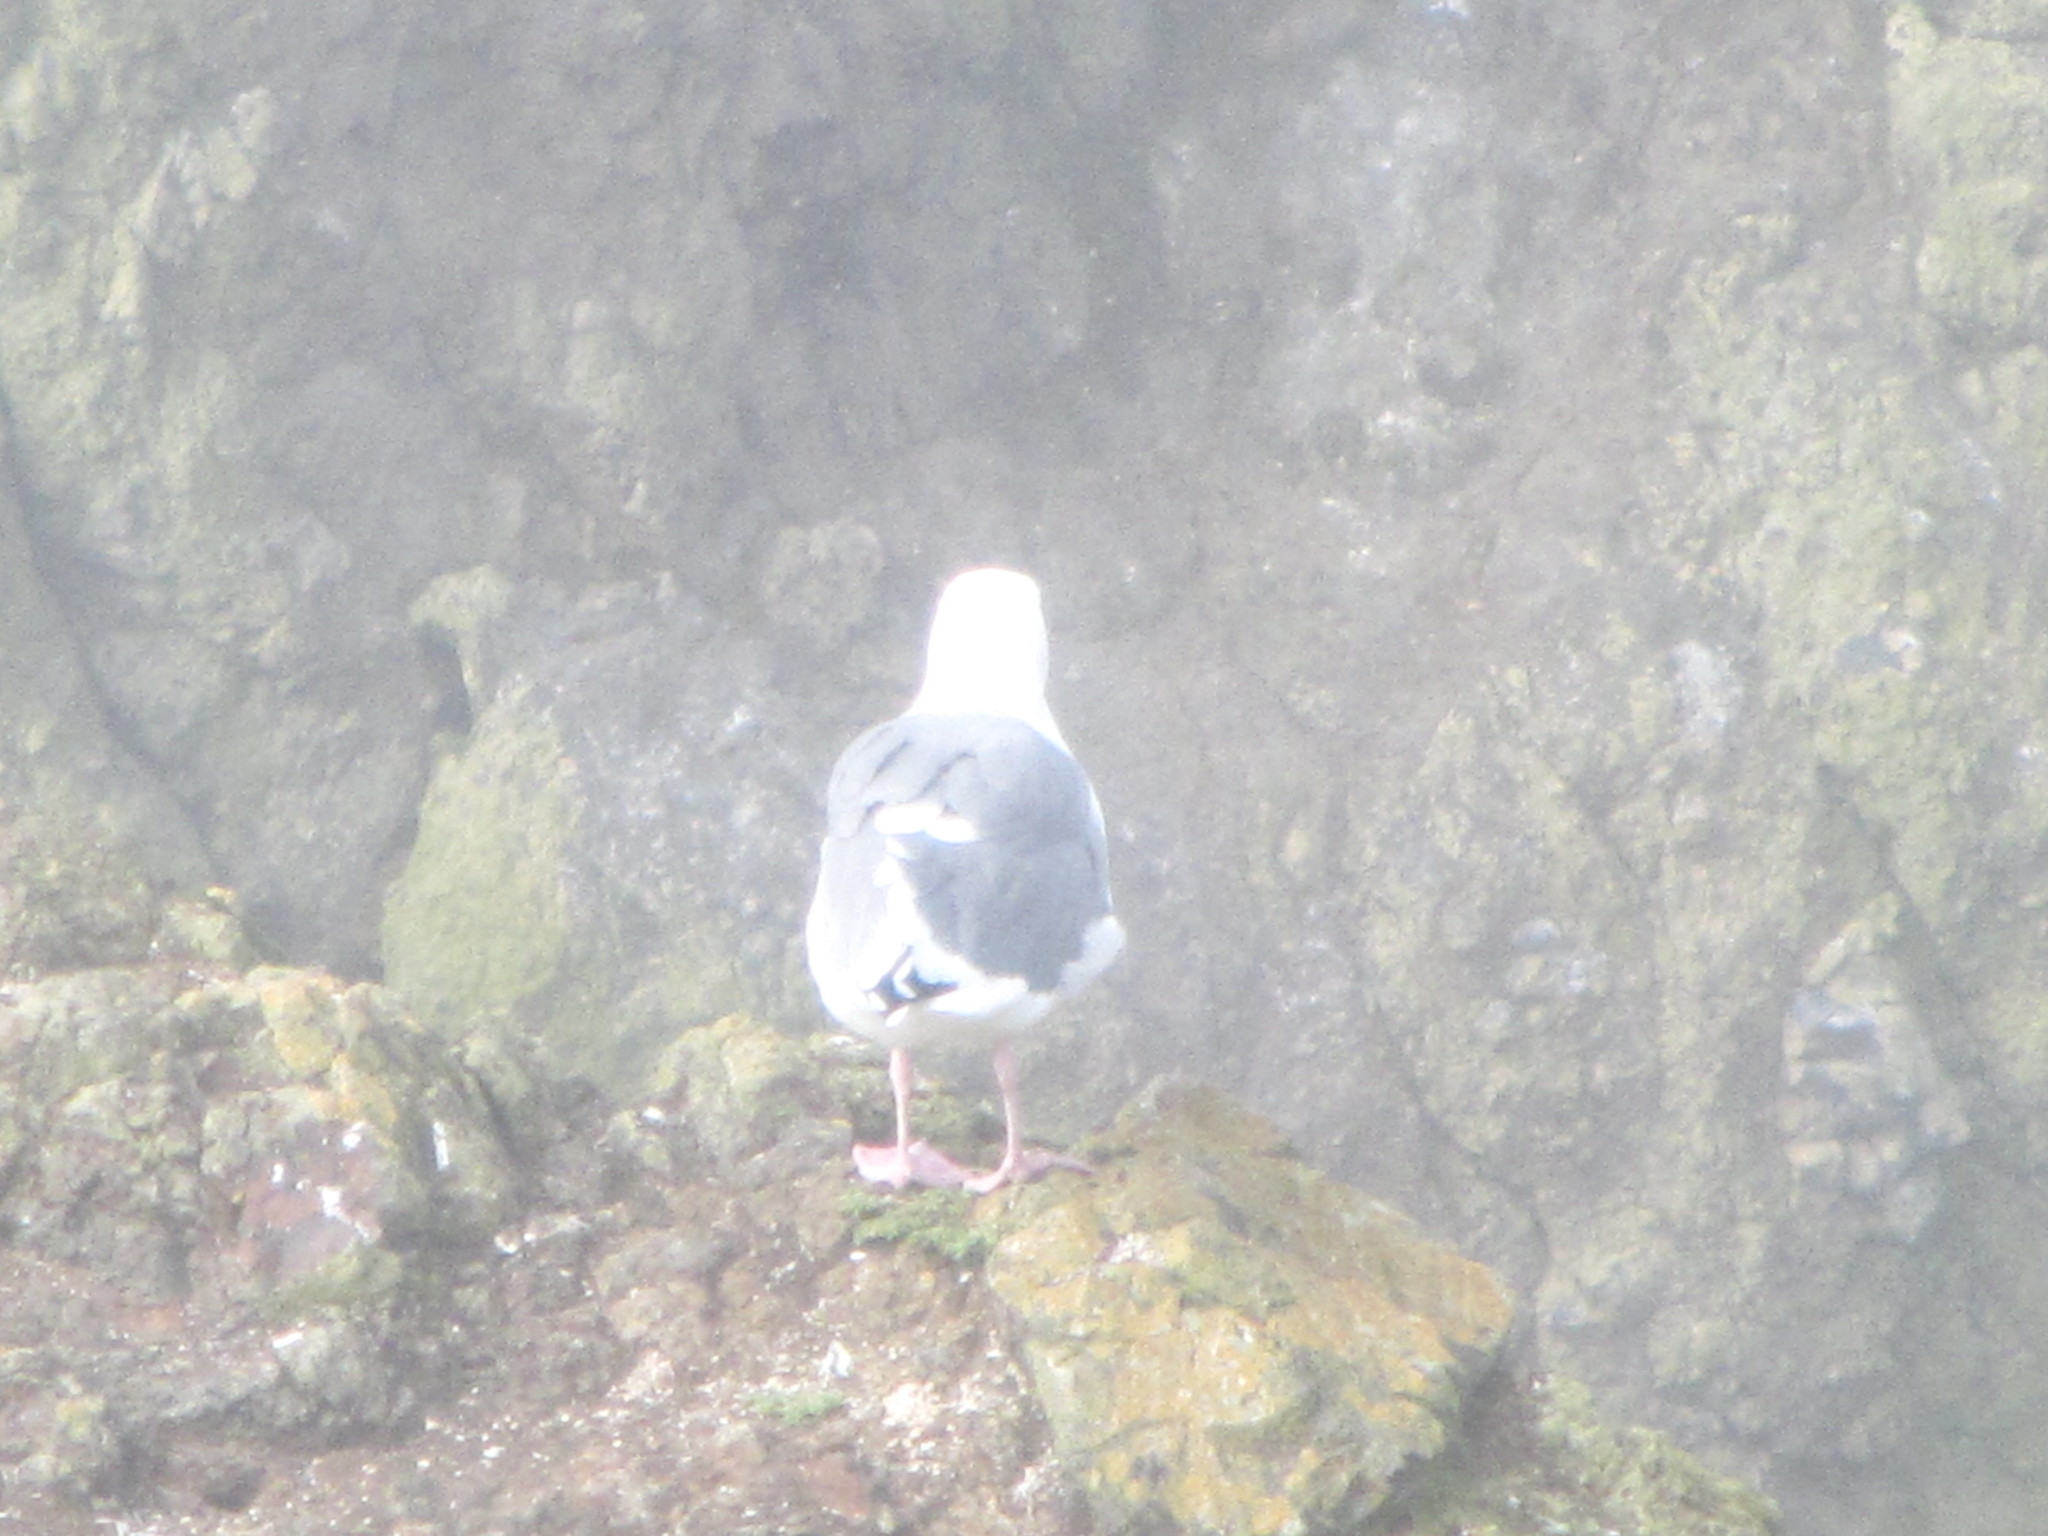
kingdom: Animalia
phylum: Chordata
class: Aves
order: Charadriiformes
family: Laridae
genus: Larus
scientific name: Larus occidentalis
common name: Western gull
